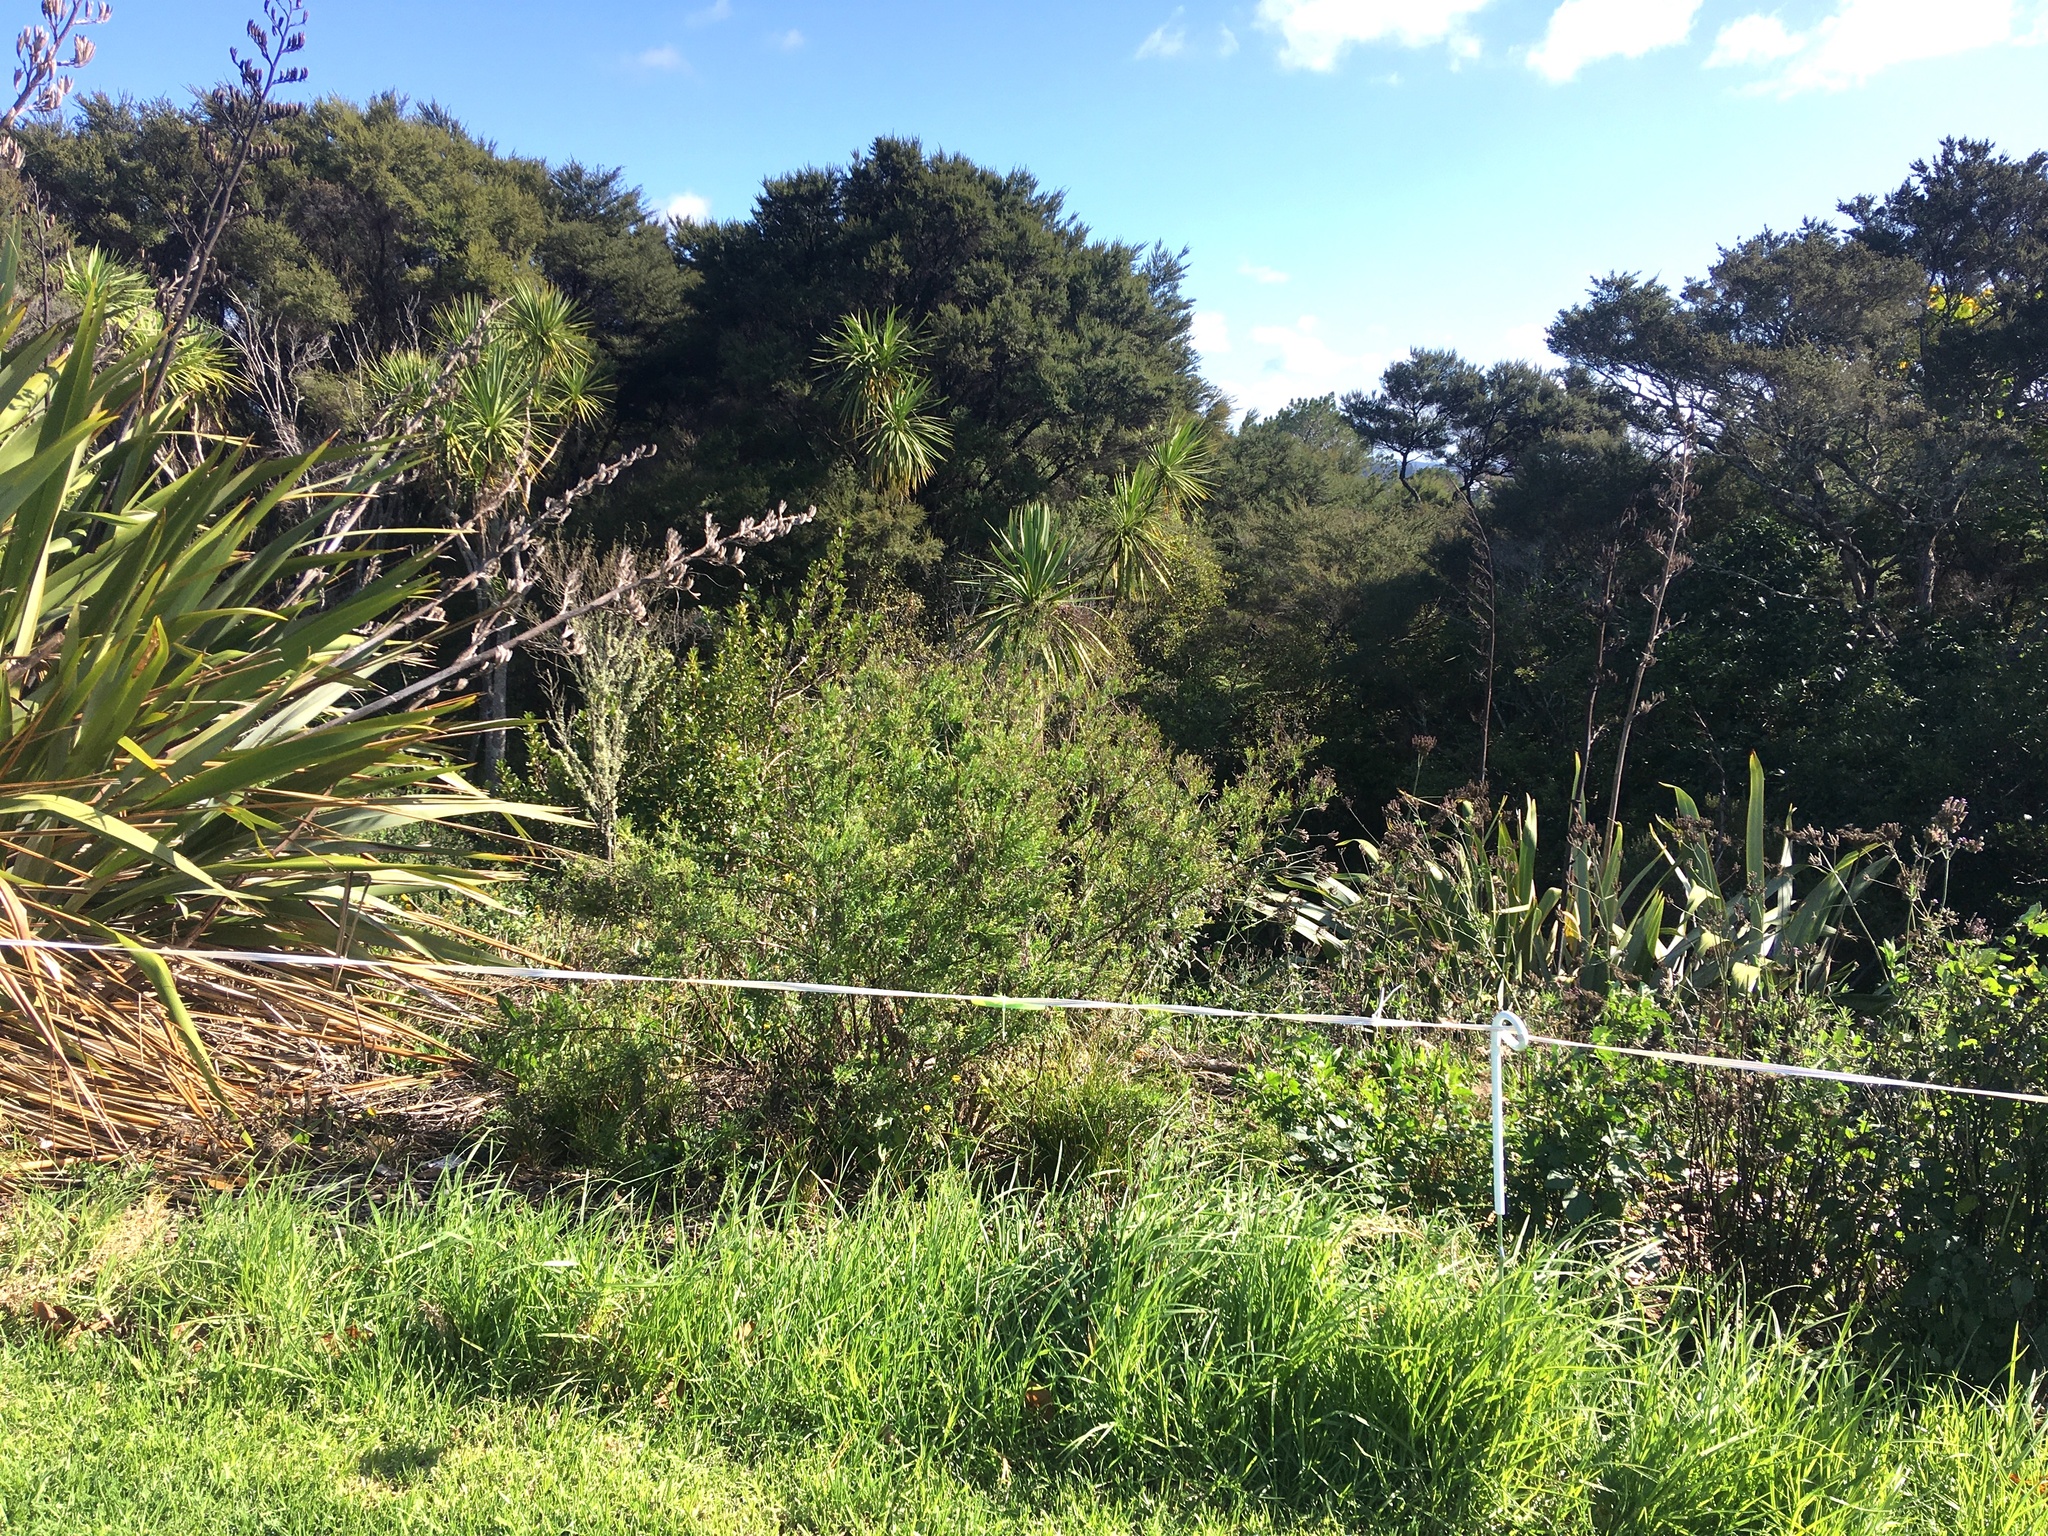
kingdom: Plantae
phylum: Tracheophyta
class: Magnoliopsida
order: Asterales
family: Asteraceae
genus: Senecio
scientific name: Senecio esleri
